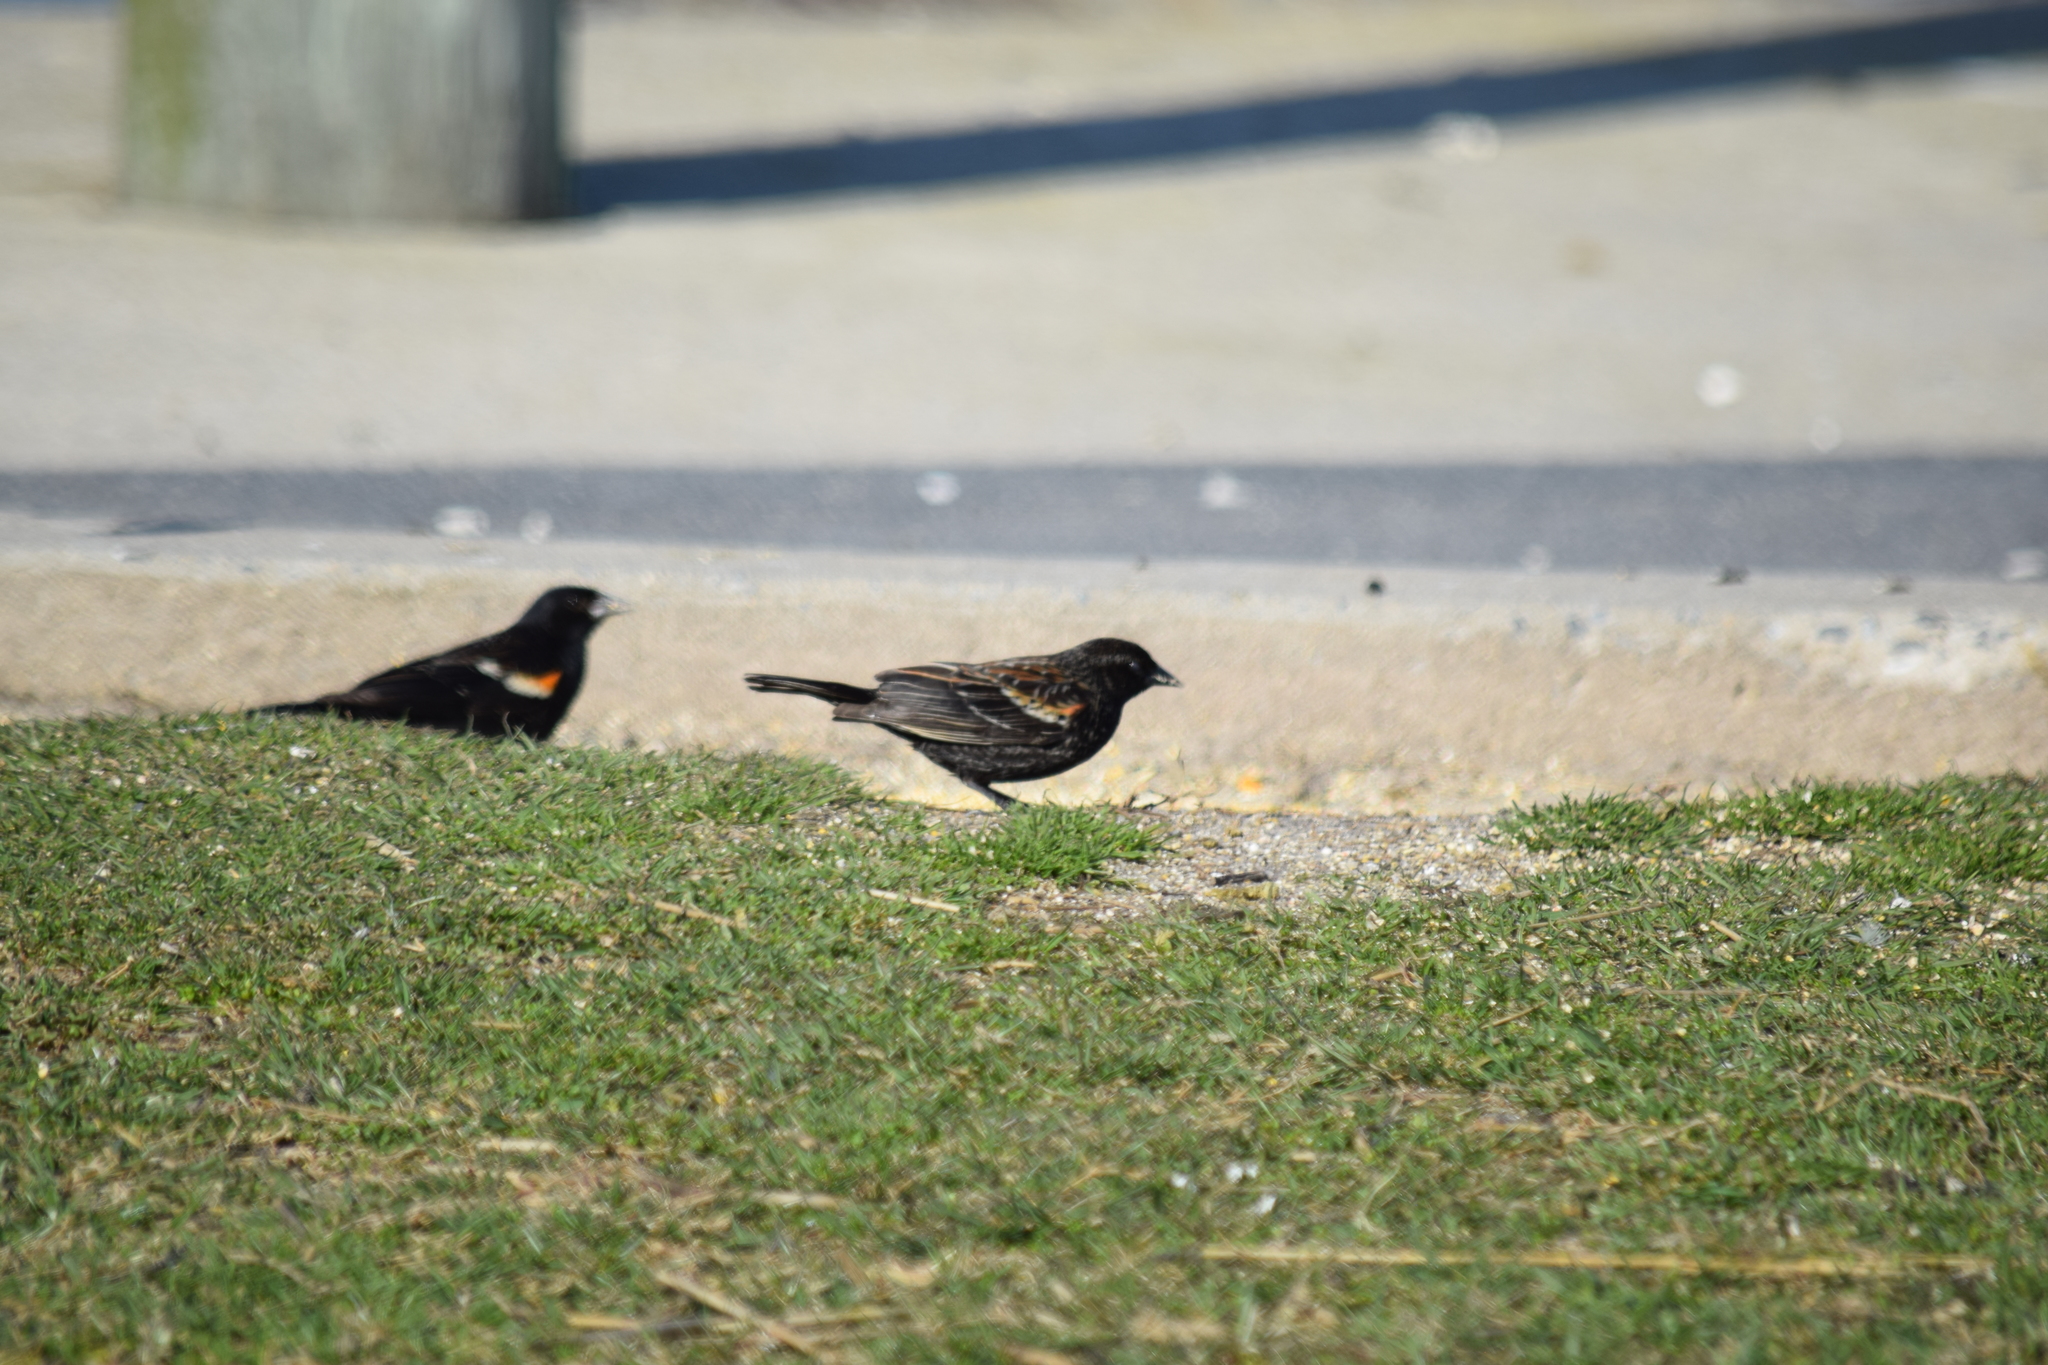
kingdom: Animalia
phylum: Chordata
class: Aves
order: Passeriformes
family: Icteridae
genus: Agelaius
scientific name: Agelaius phoeniceus
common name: Red-winged blackbird
